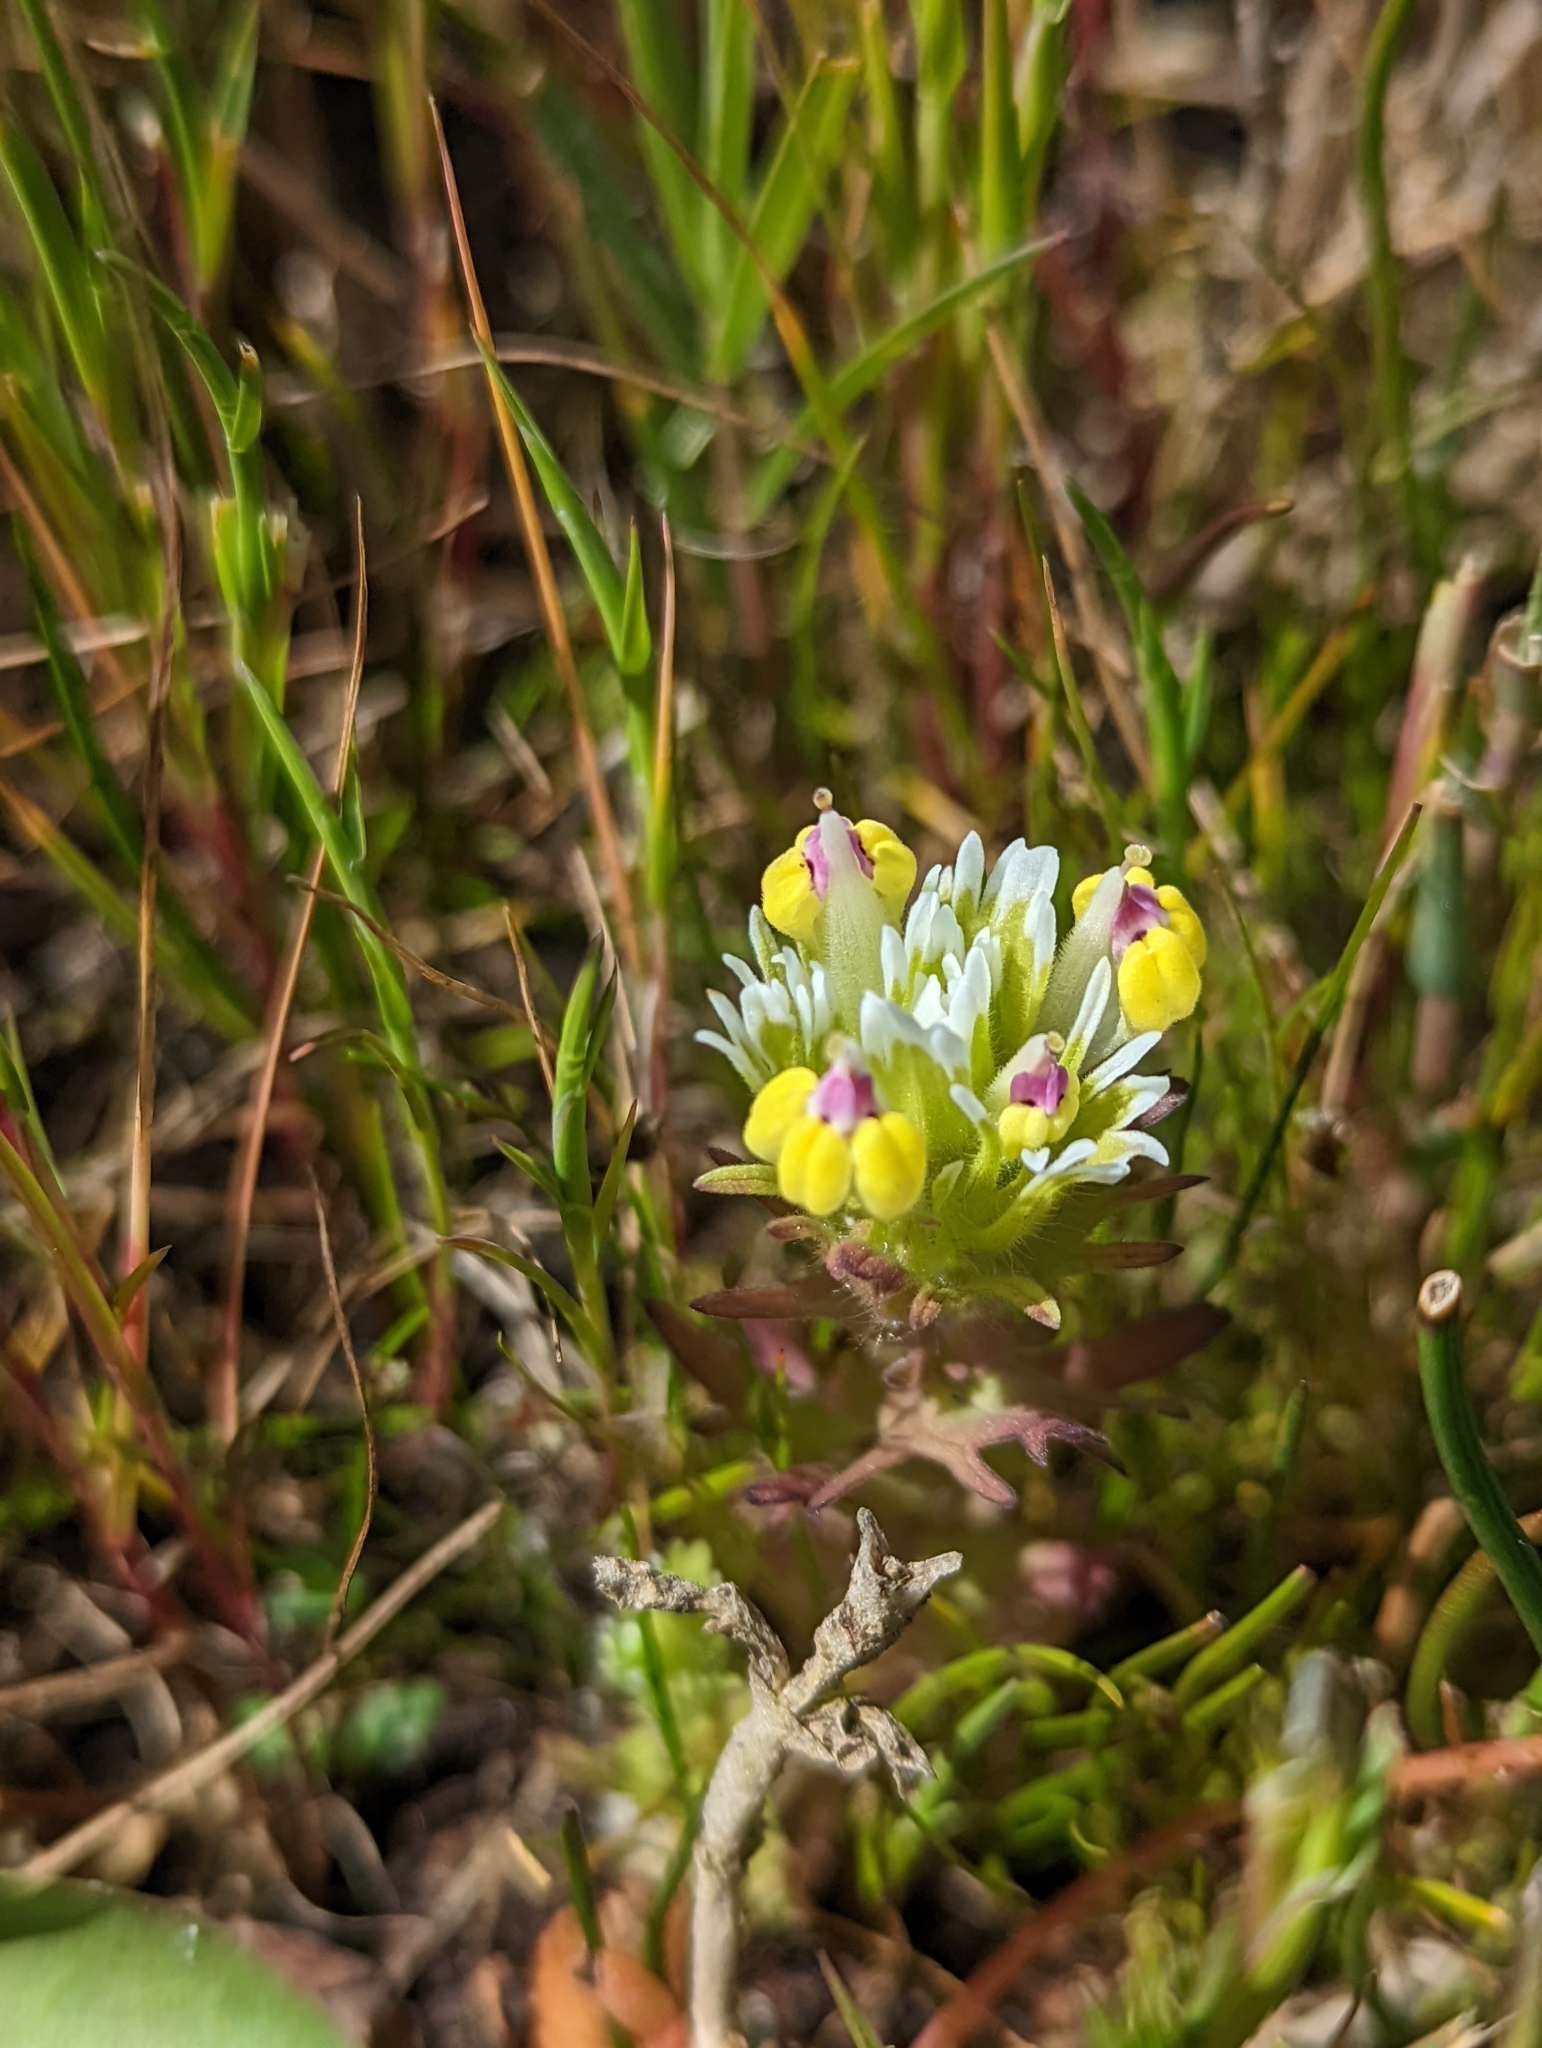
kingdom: Plantae
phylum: Tracheophyta
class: Magnoliopsida
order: Lamiales
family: Orobanchaceae
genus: Castilleja
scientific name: Castilleja ambigua
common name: Johnny-nip
